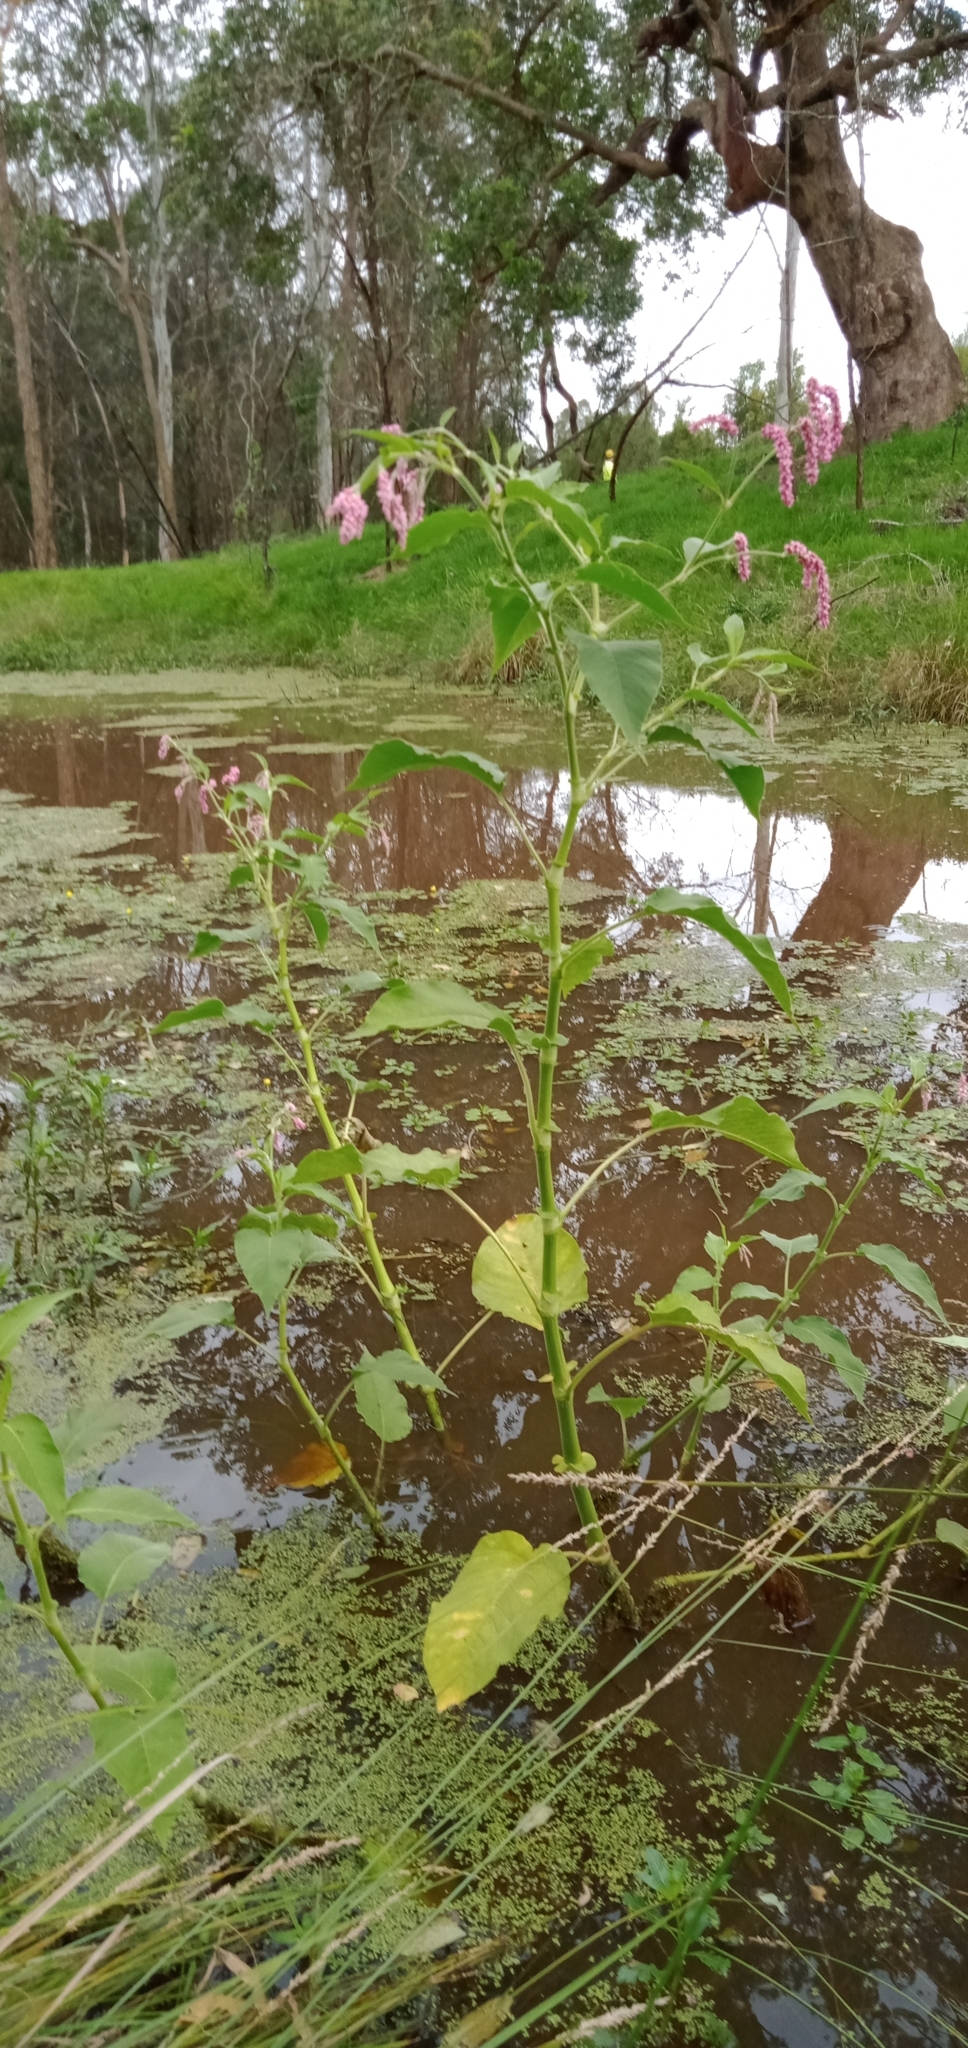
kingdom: Plantae
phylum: Tracheophyta
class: Magnoliopsida
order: Caryophyllales
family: Polygonaceae
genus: Persicaria
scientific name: Persicaria orientalis
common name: Kiss-me-over-the-garden-gate
